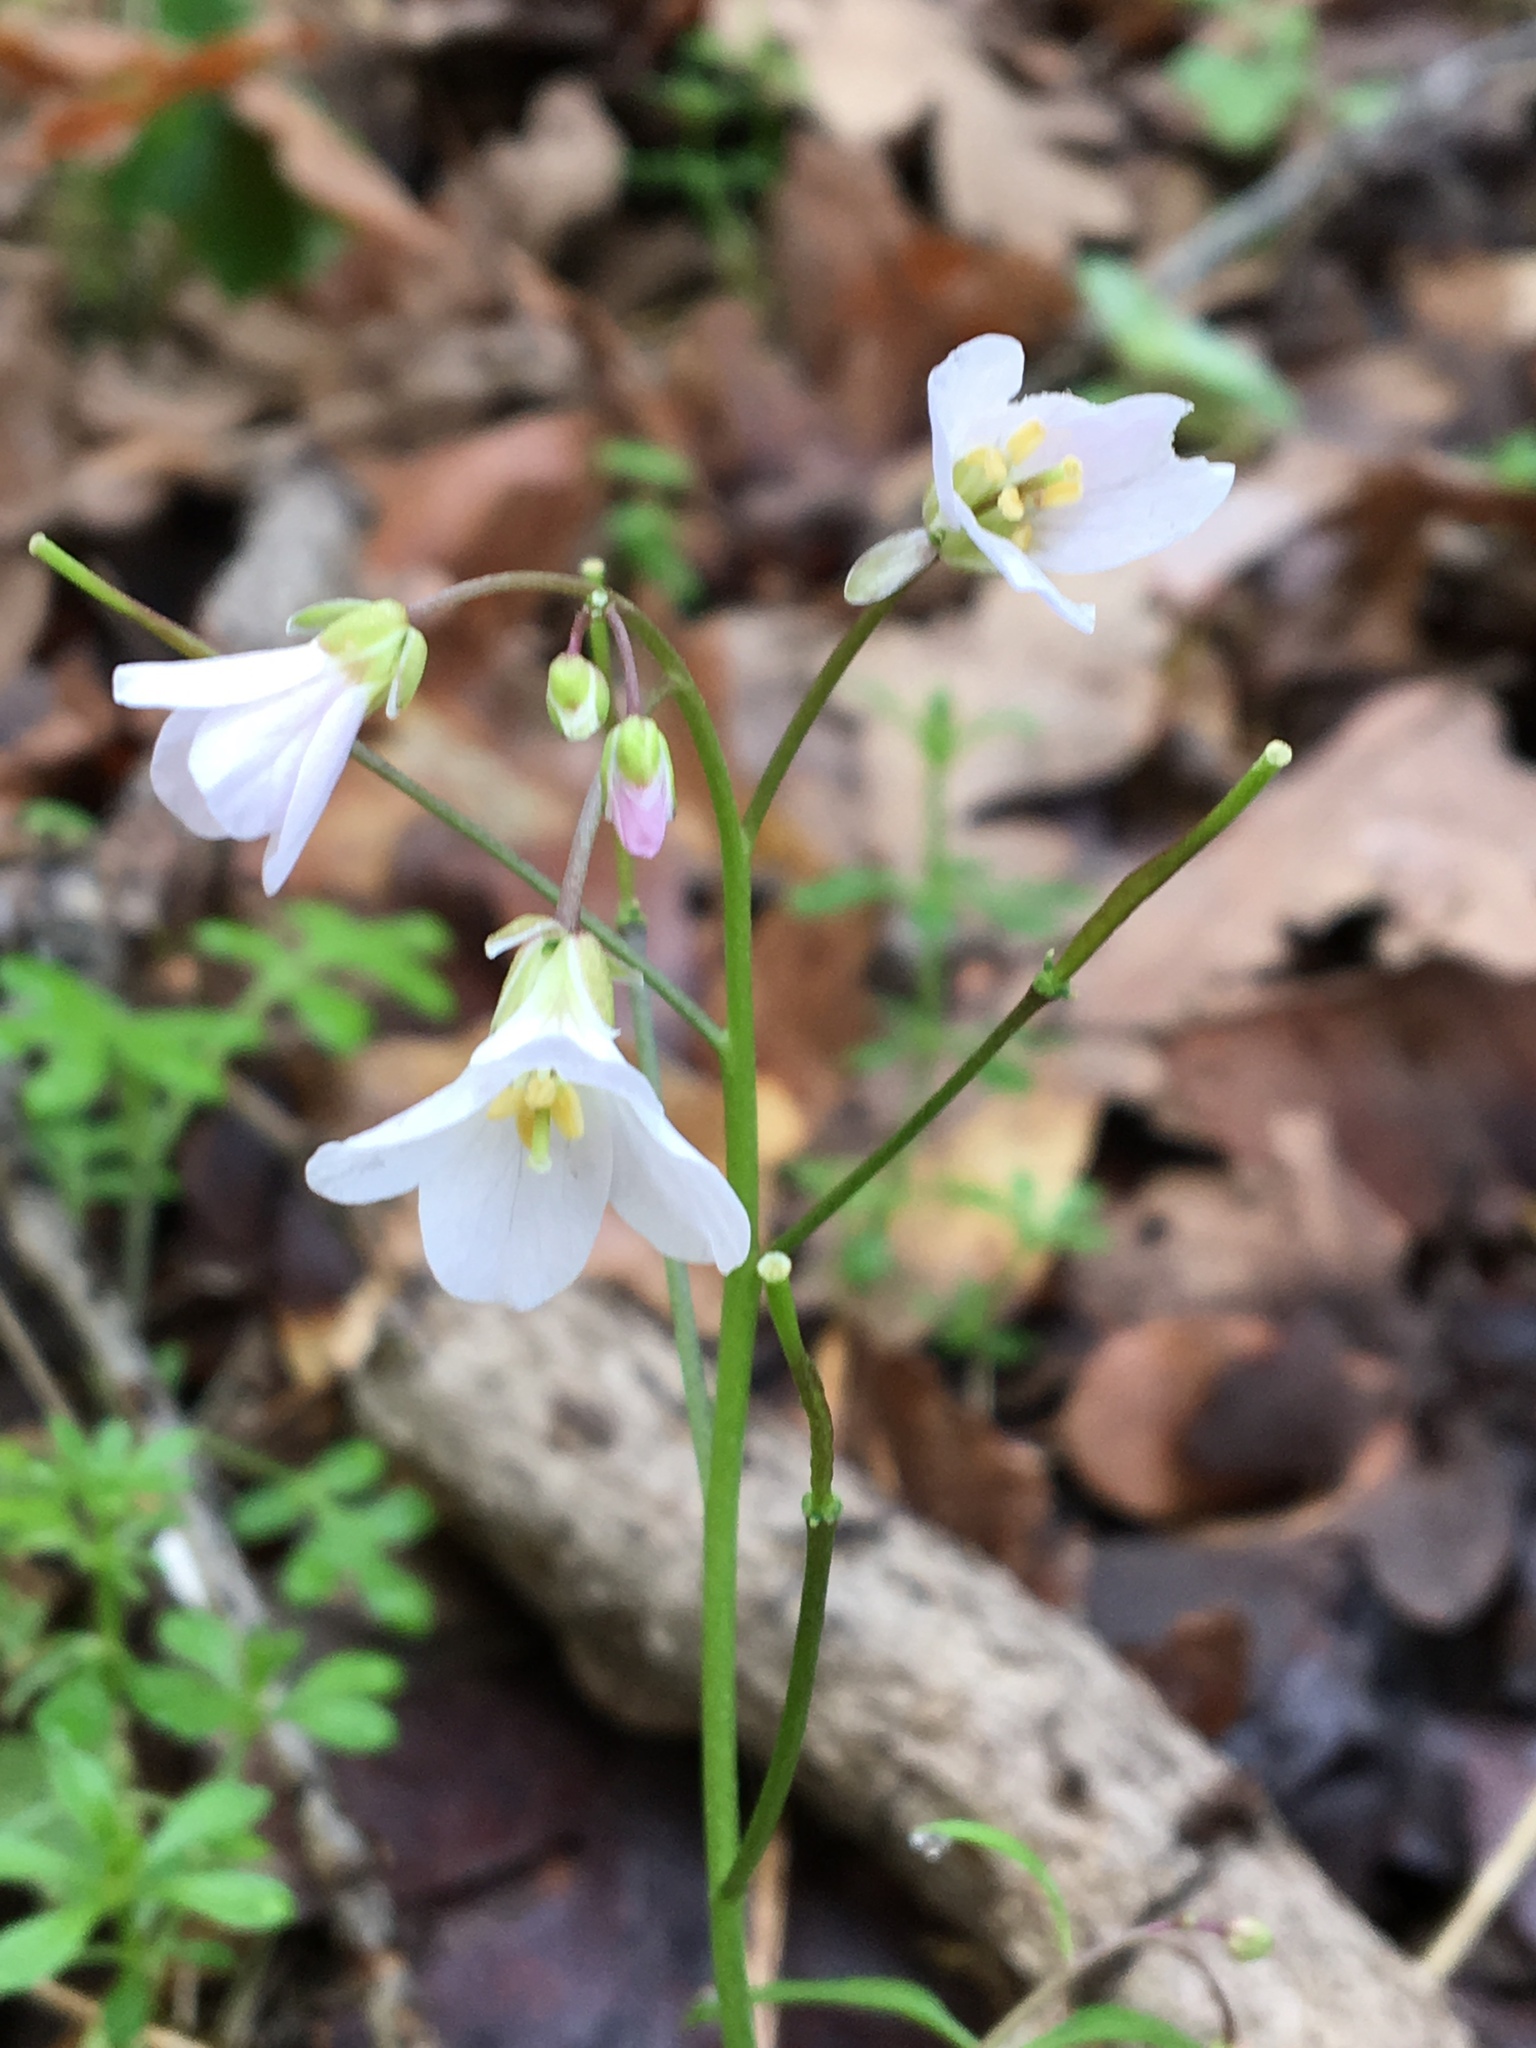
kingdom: Plantae
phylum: Tracheophyta
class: Magnoliopsida
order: Brassicales
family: Brassicaceae
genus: Cardamine
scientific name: Cardamine californica
